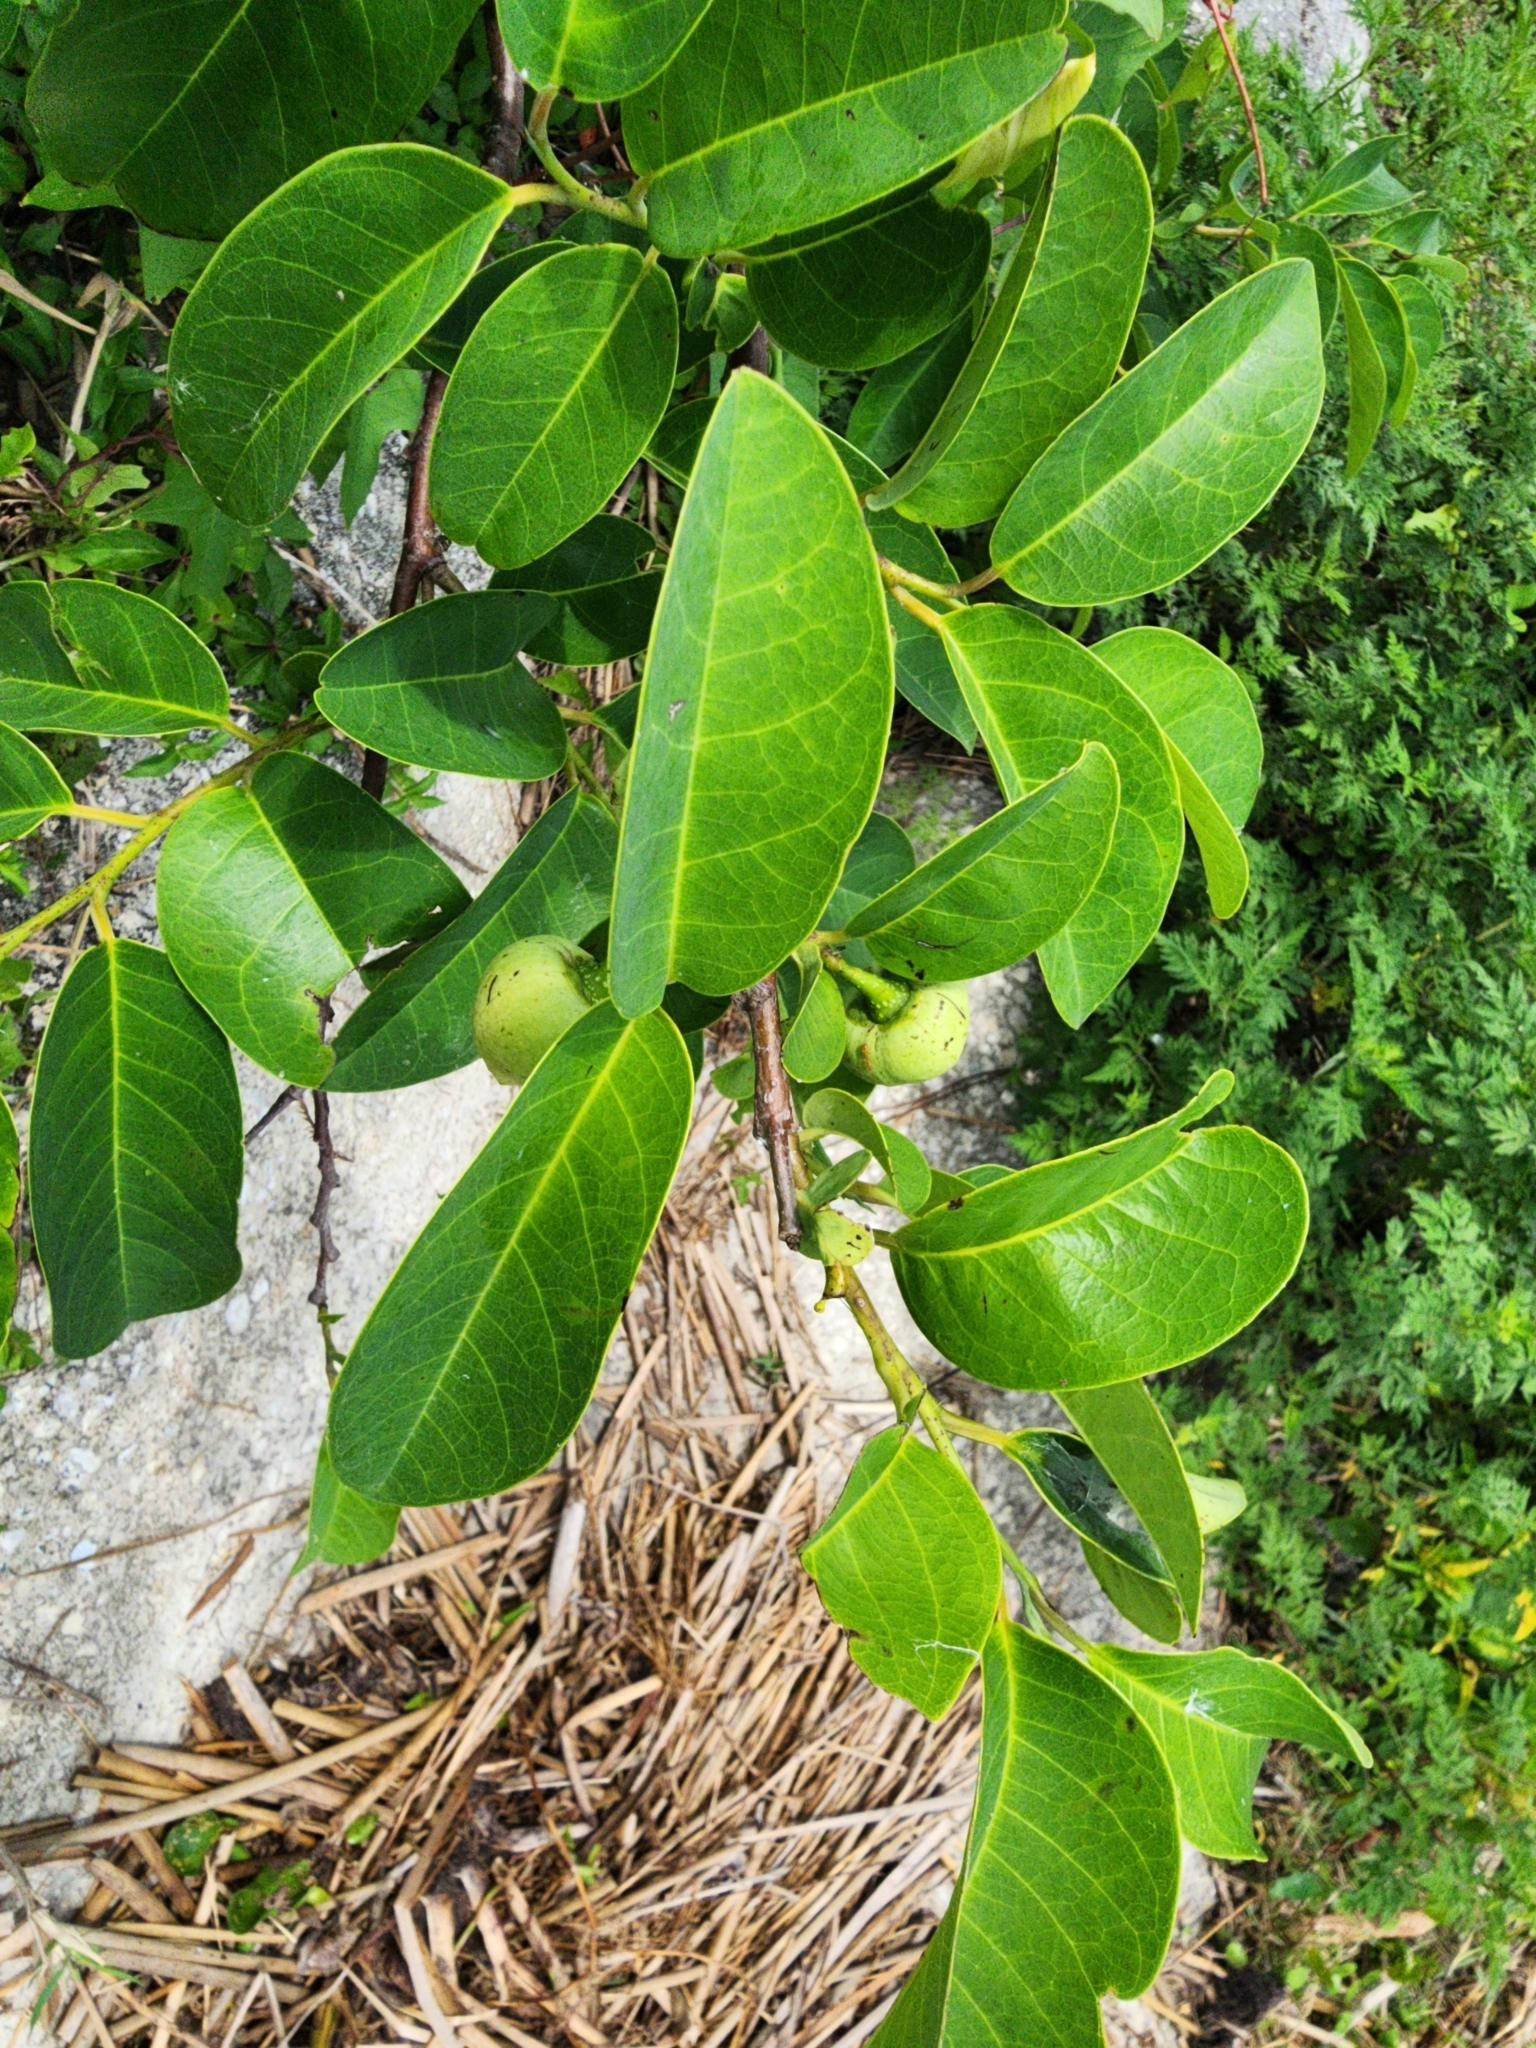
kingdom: Plantae
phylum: Tracheophyta
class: Magnoliopsida
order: Magnoliales
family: Annonaceae
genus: Annona
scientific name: Annona glabra
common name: Monkey apple
